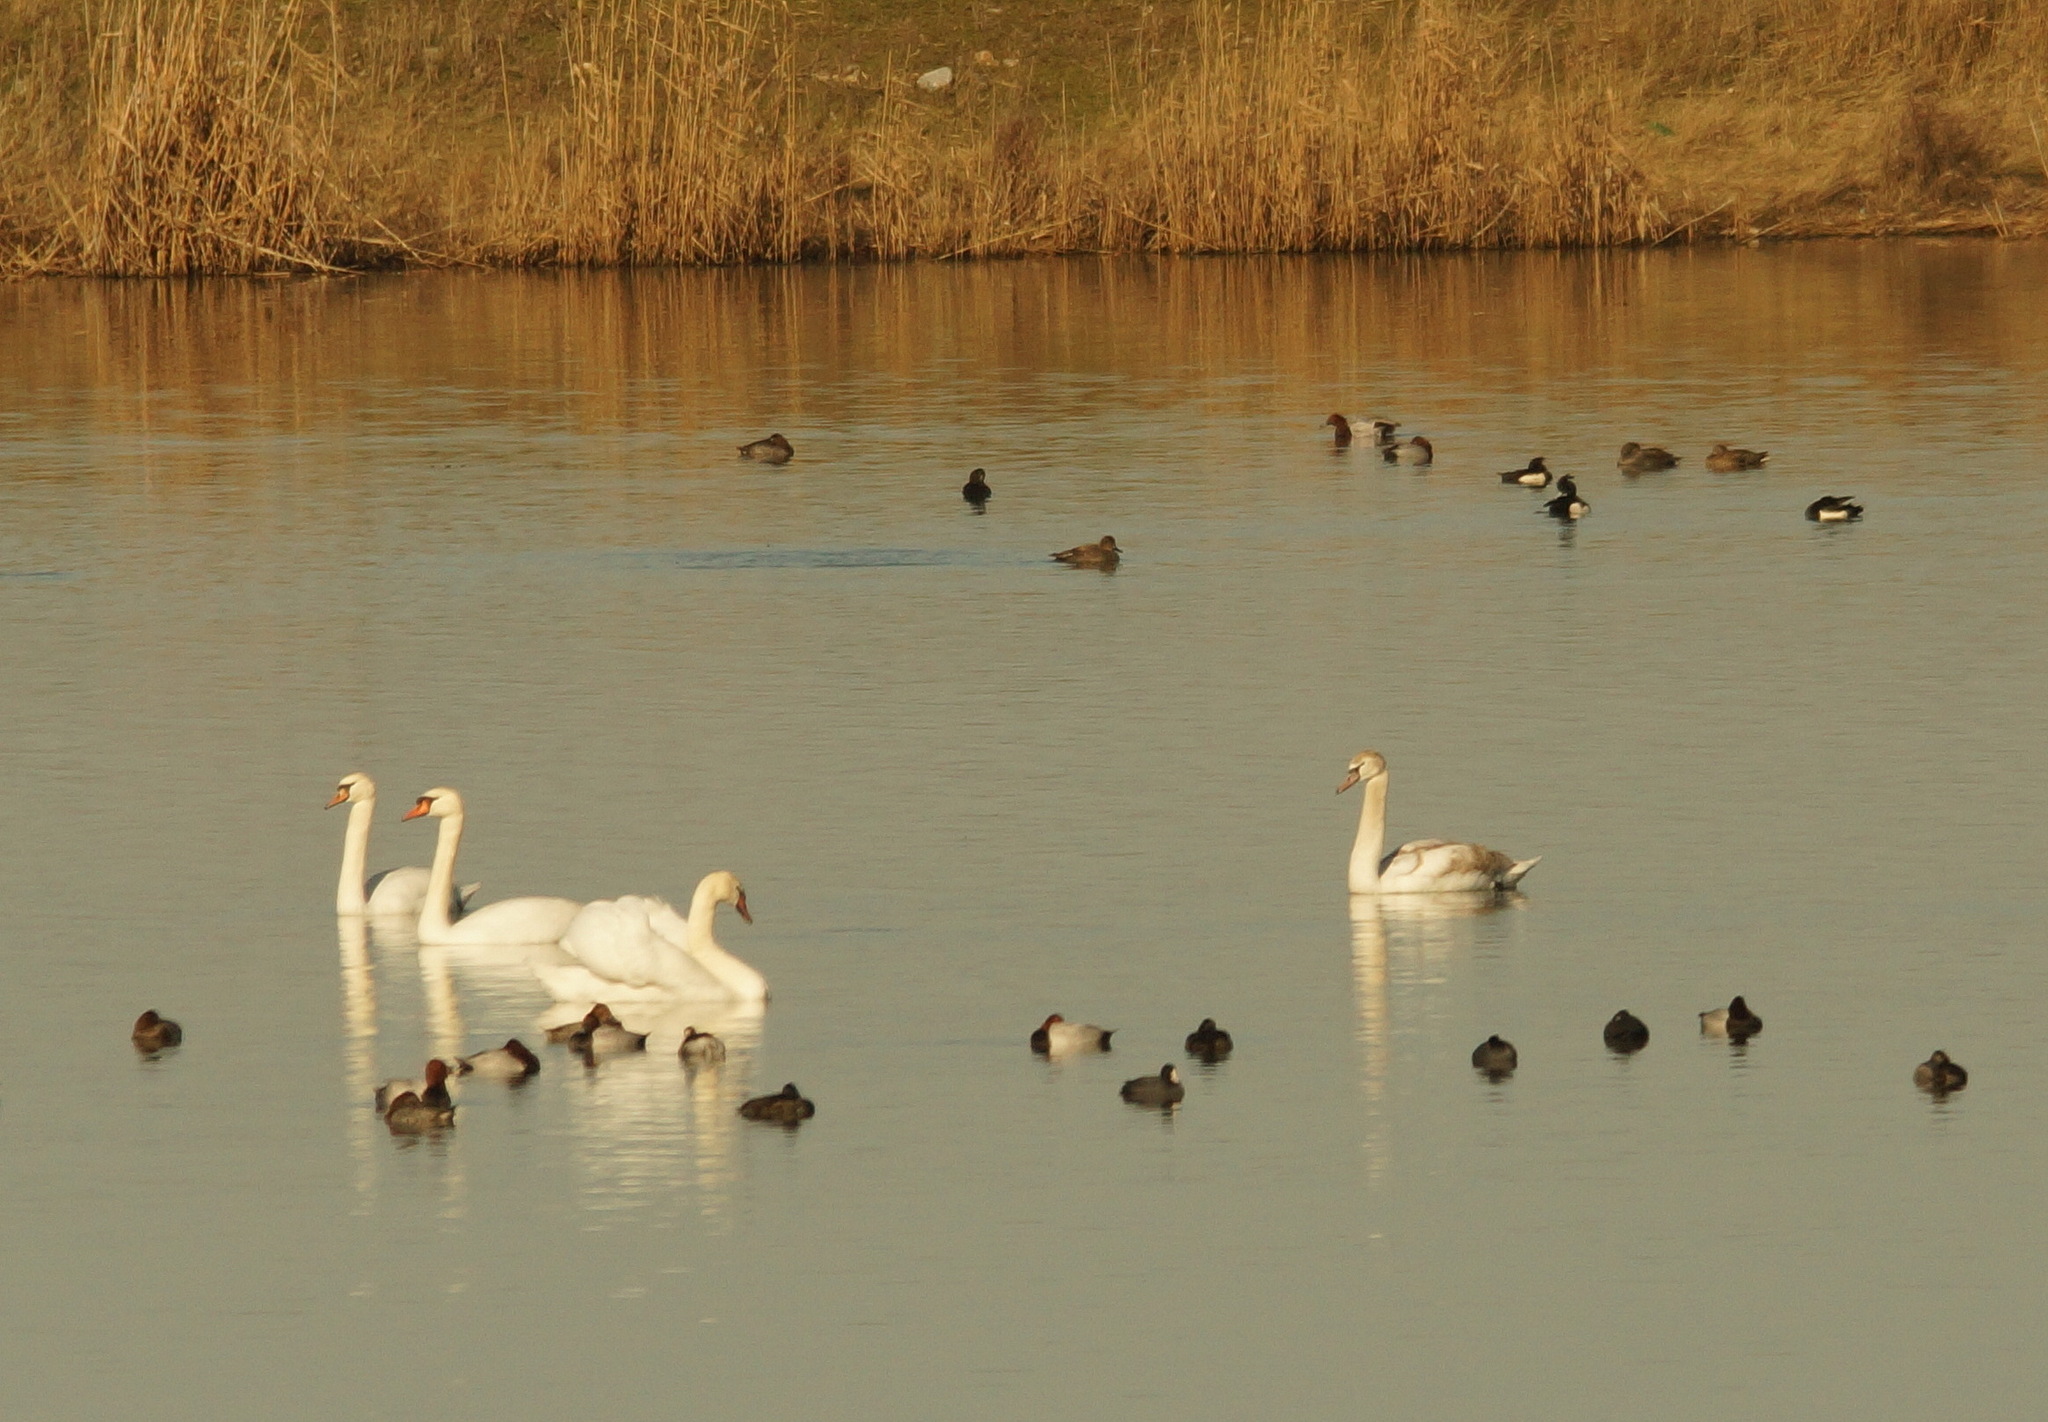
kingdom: Animalia
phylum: Chordata
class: Aves
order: Anseriformes
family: Anatidae
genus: Cygnus
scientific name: Cygnus olor
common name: Mute swan
